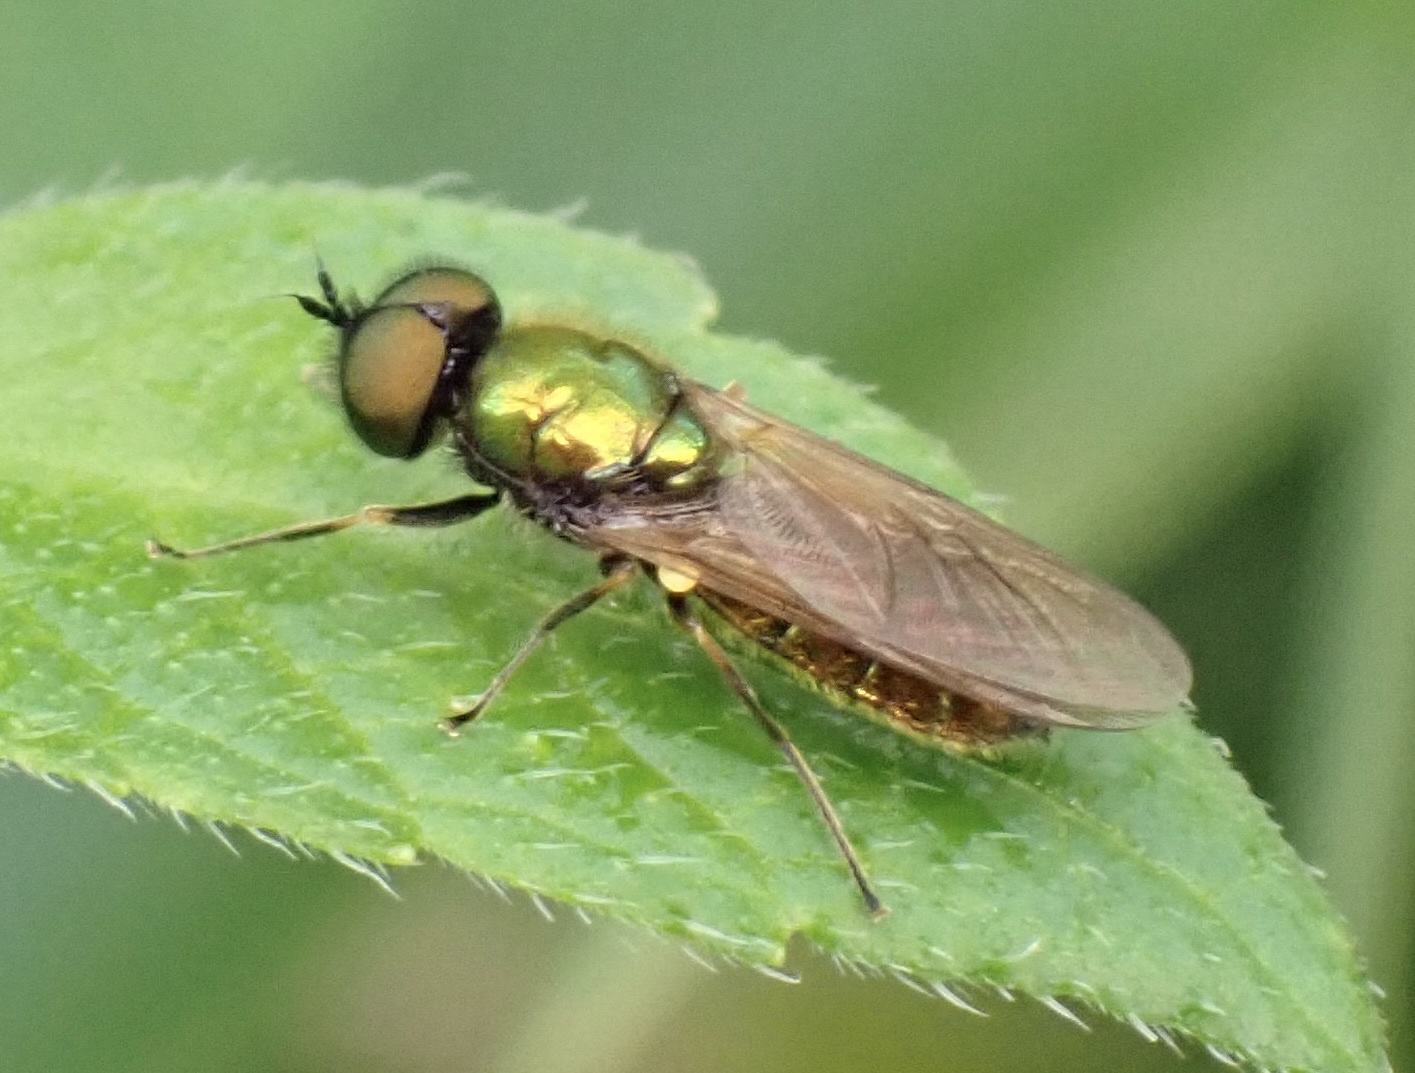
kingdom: Animalia
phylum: Arthropoda
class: Insecta
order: Diptera
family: Stratiomyidae
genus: Chloromyia
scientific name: Chloromyia formosa
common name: Soldier fly
